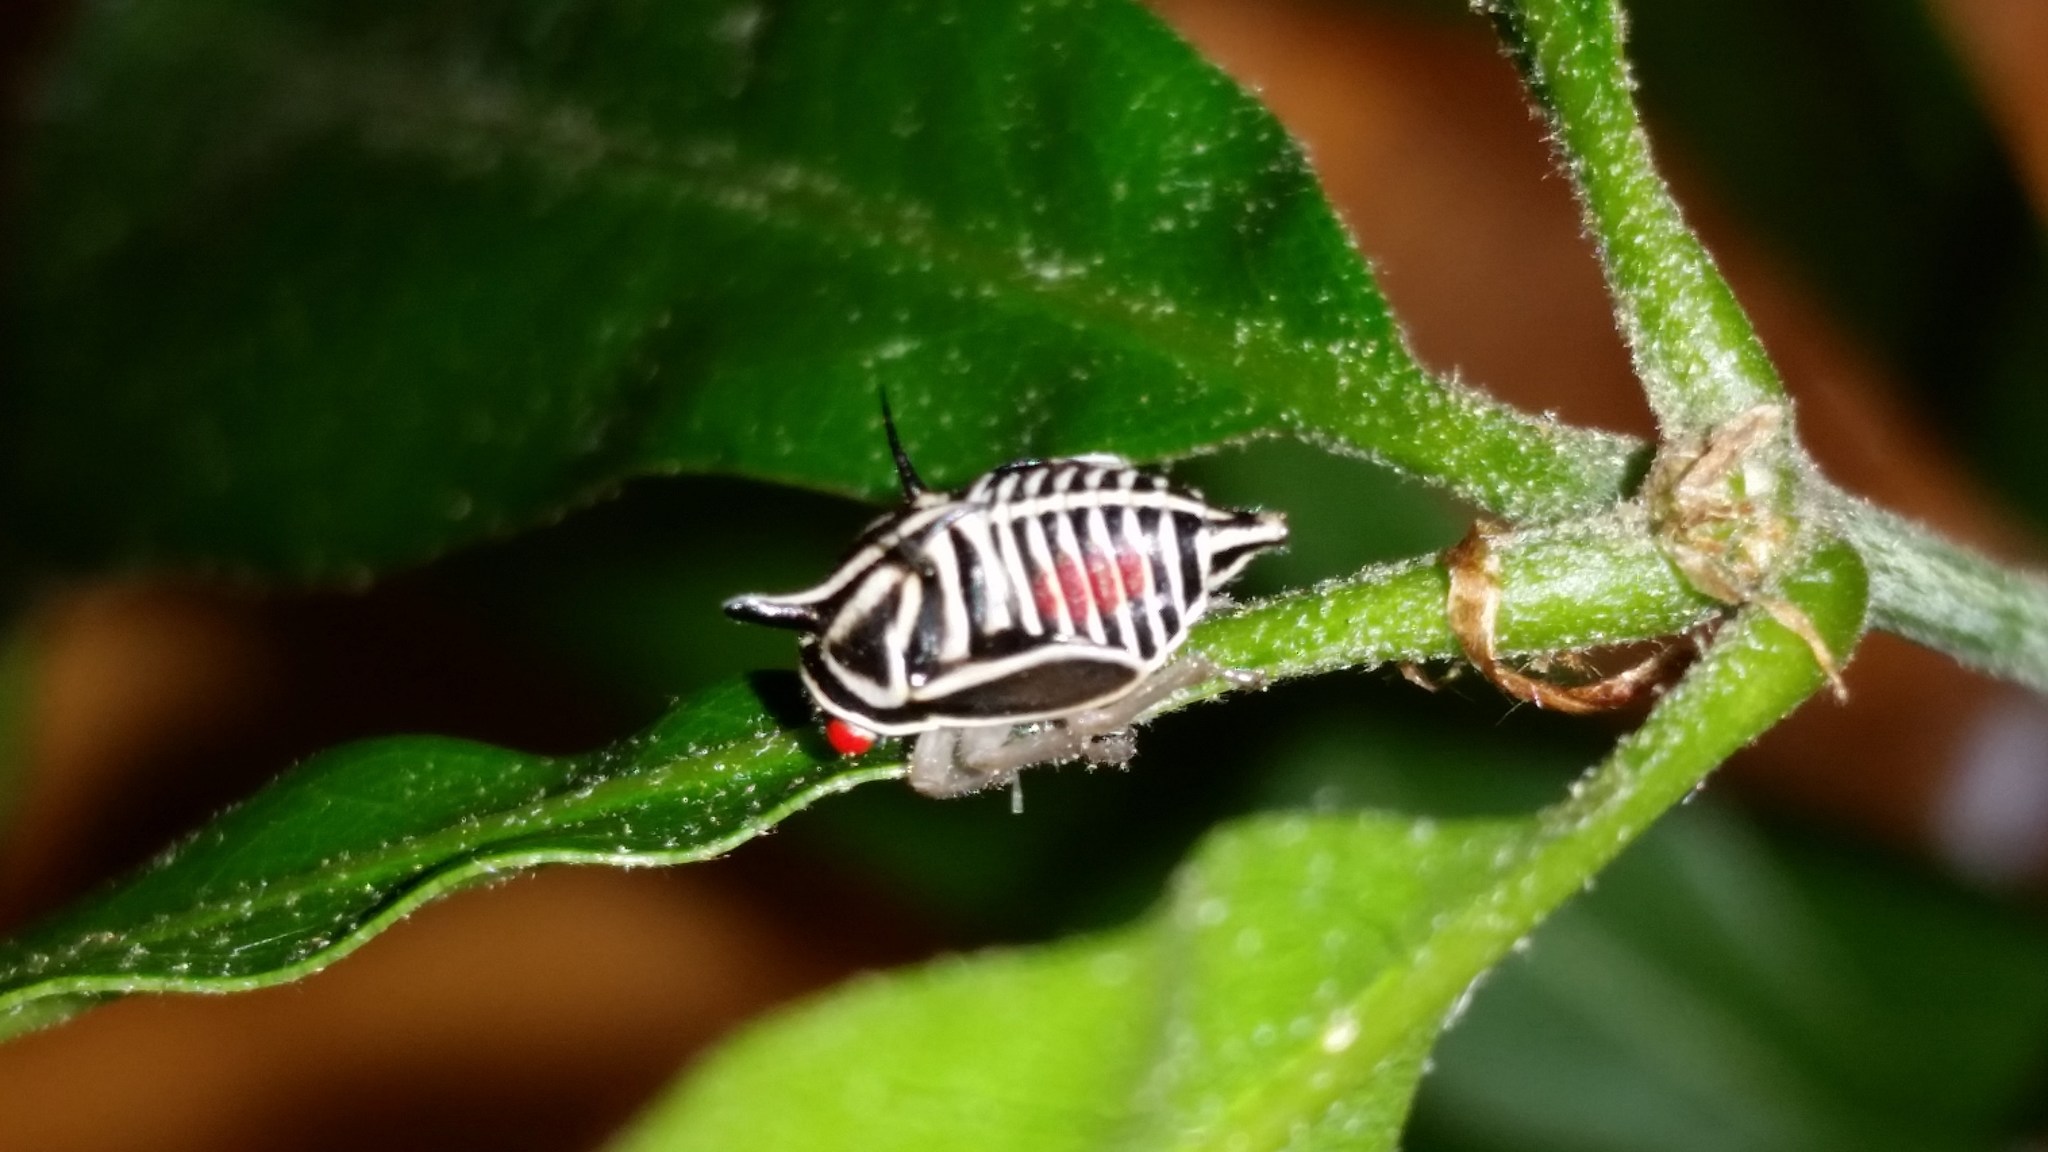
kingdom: Animalia
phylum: Arthropoda
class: Insecta
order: Hemiptera
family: Membracidae
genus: Platycotis
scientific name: Platycotis vittatus
